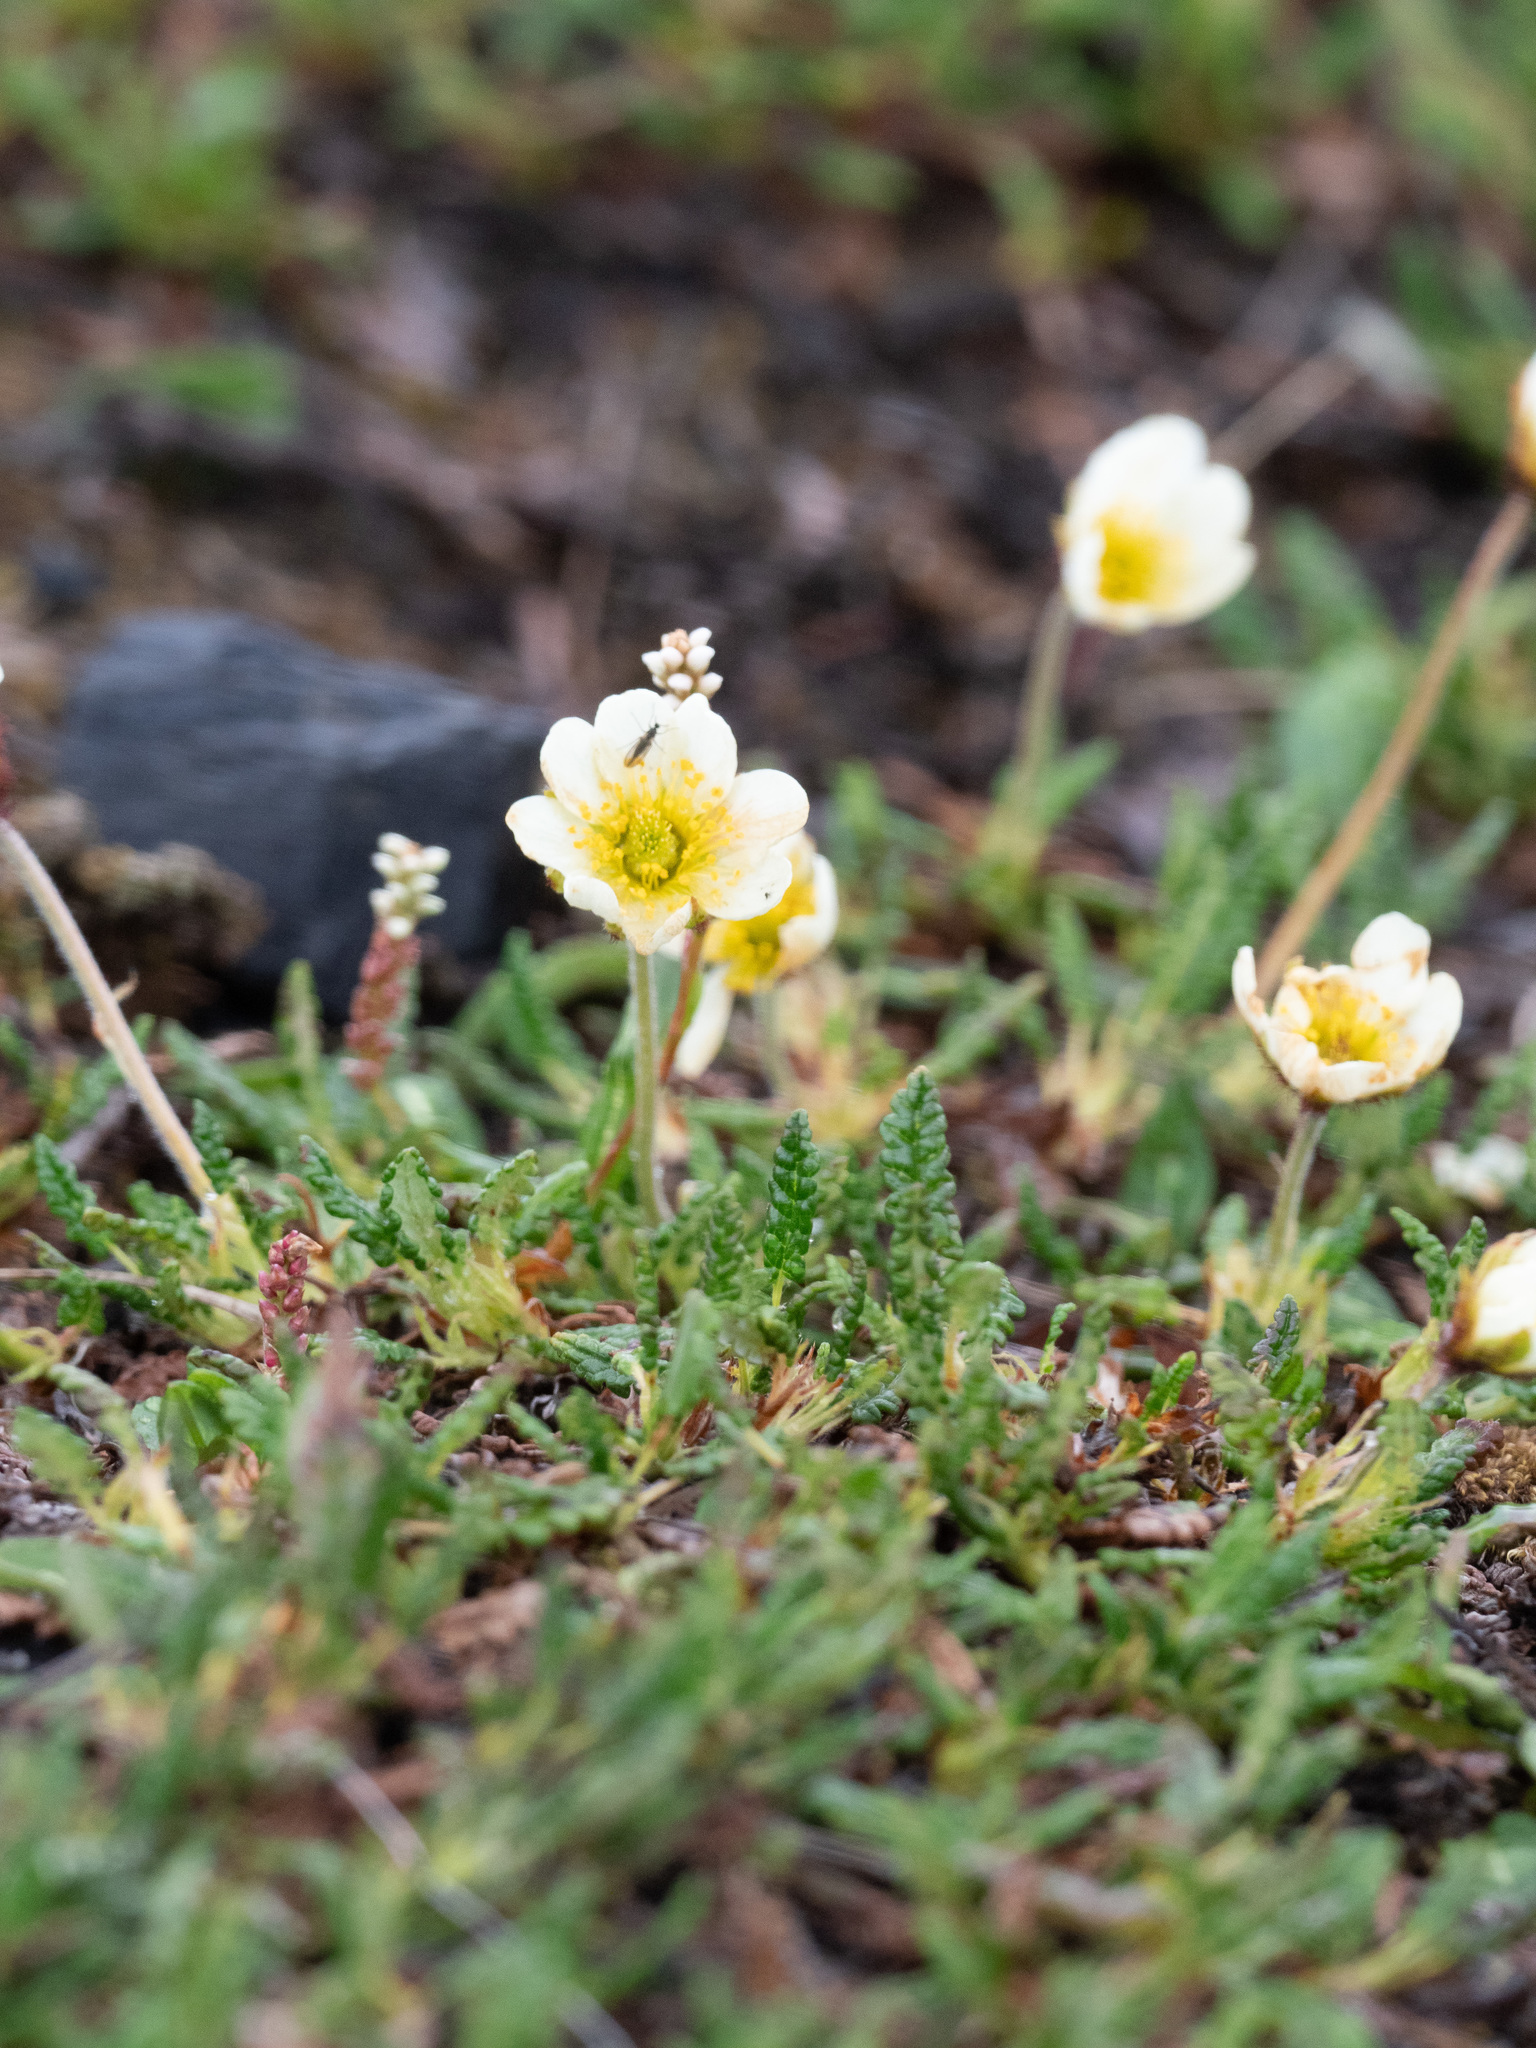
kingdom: Plantae
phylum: Tracheophyta
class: Magnoliopsida
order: Rosales
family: Rosaceae
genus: Dryas
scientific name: Dryas octopetala
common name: Eight-petal mountain-avens
